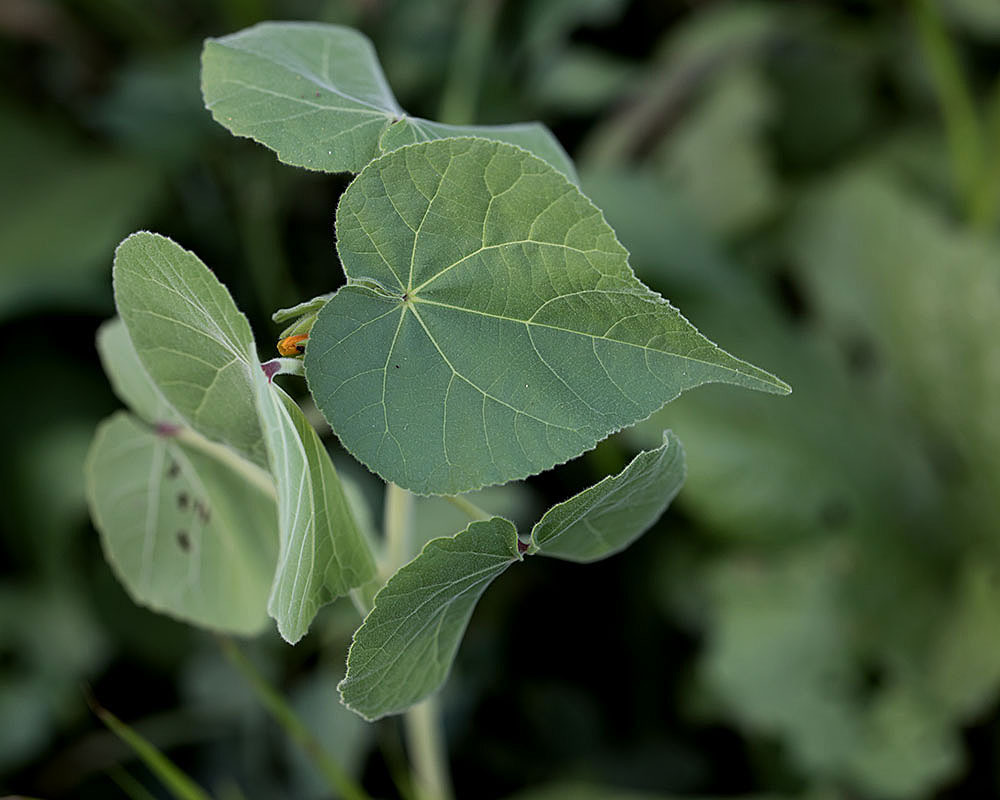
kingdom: Plantae
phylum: Tracheophyta
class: Magnoliopsida
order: Malvales
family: Malvaceae
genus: Abutilon
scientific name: Abutilon theophrasti
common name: Velvetleaf
